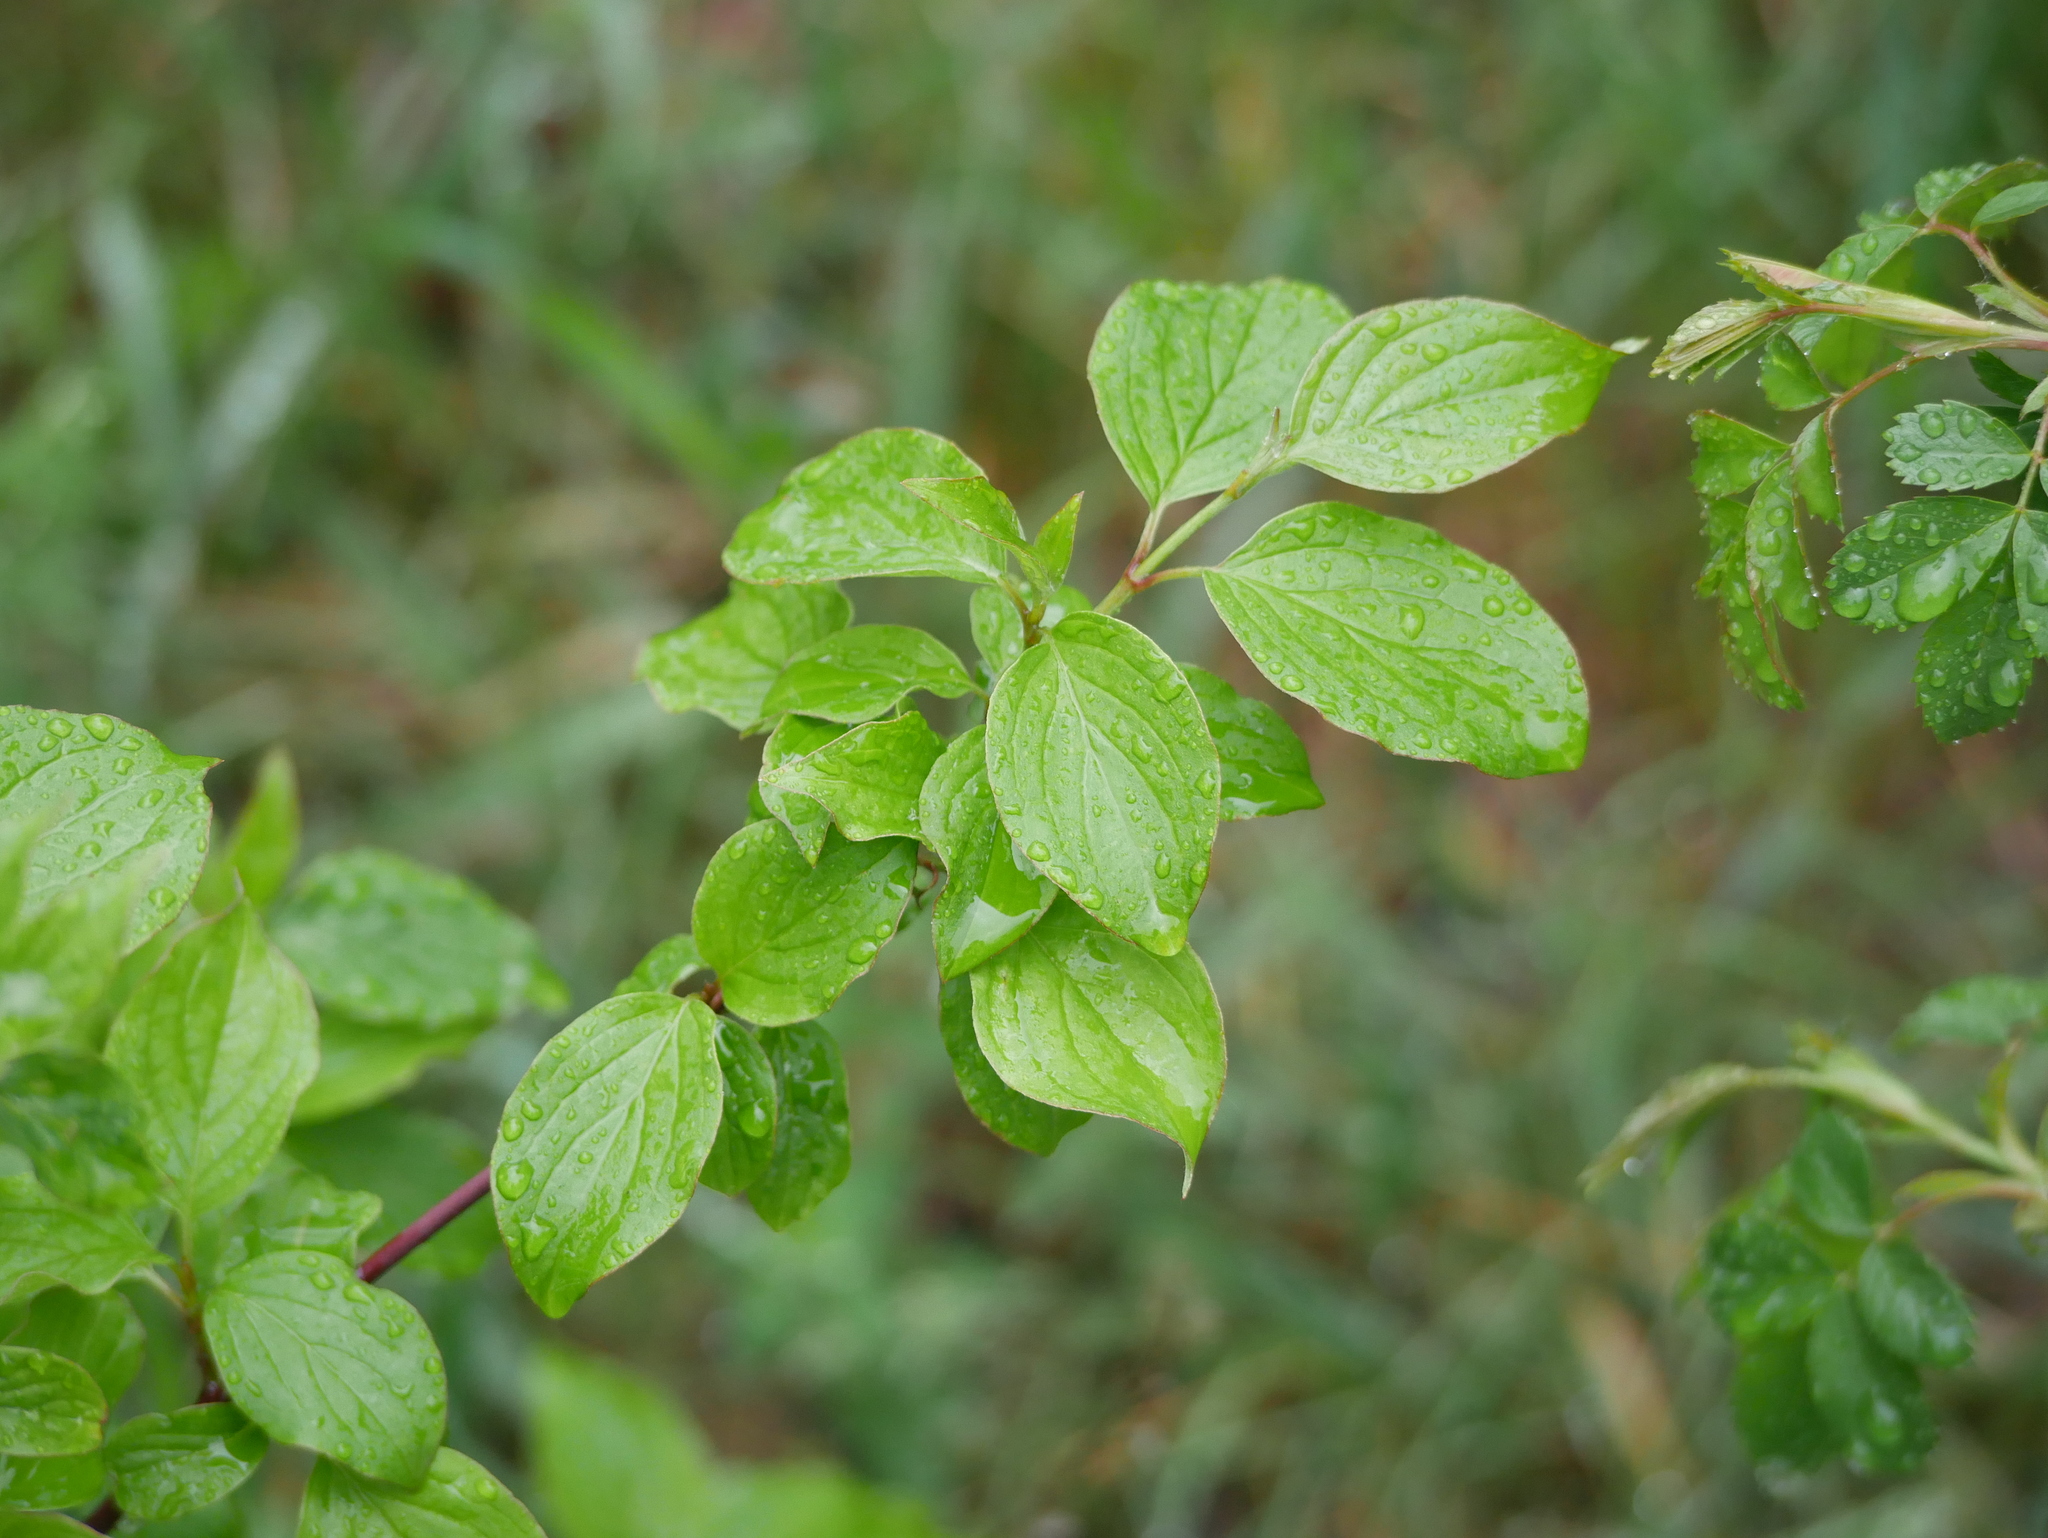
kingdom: Plantae
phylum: Tracheophyta
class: Magnoliopsida
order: Cornales
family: Cornaceae
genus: Cornus
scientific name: Cornus sanguinea
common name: Dogwood
